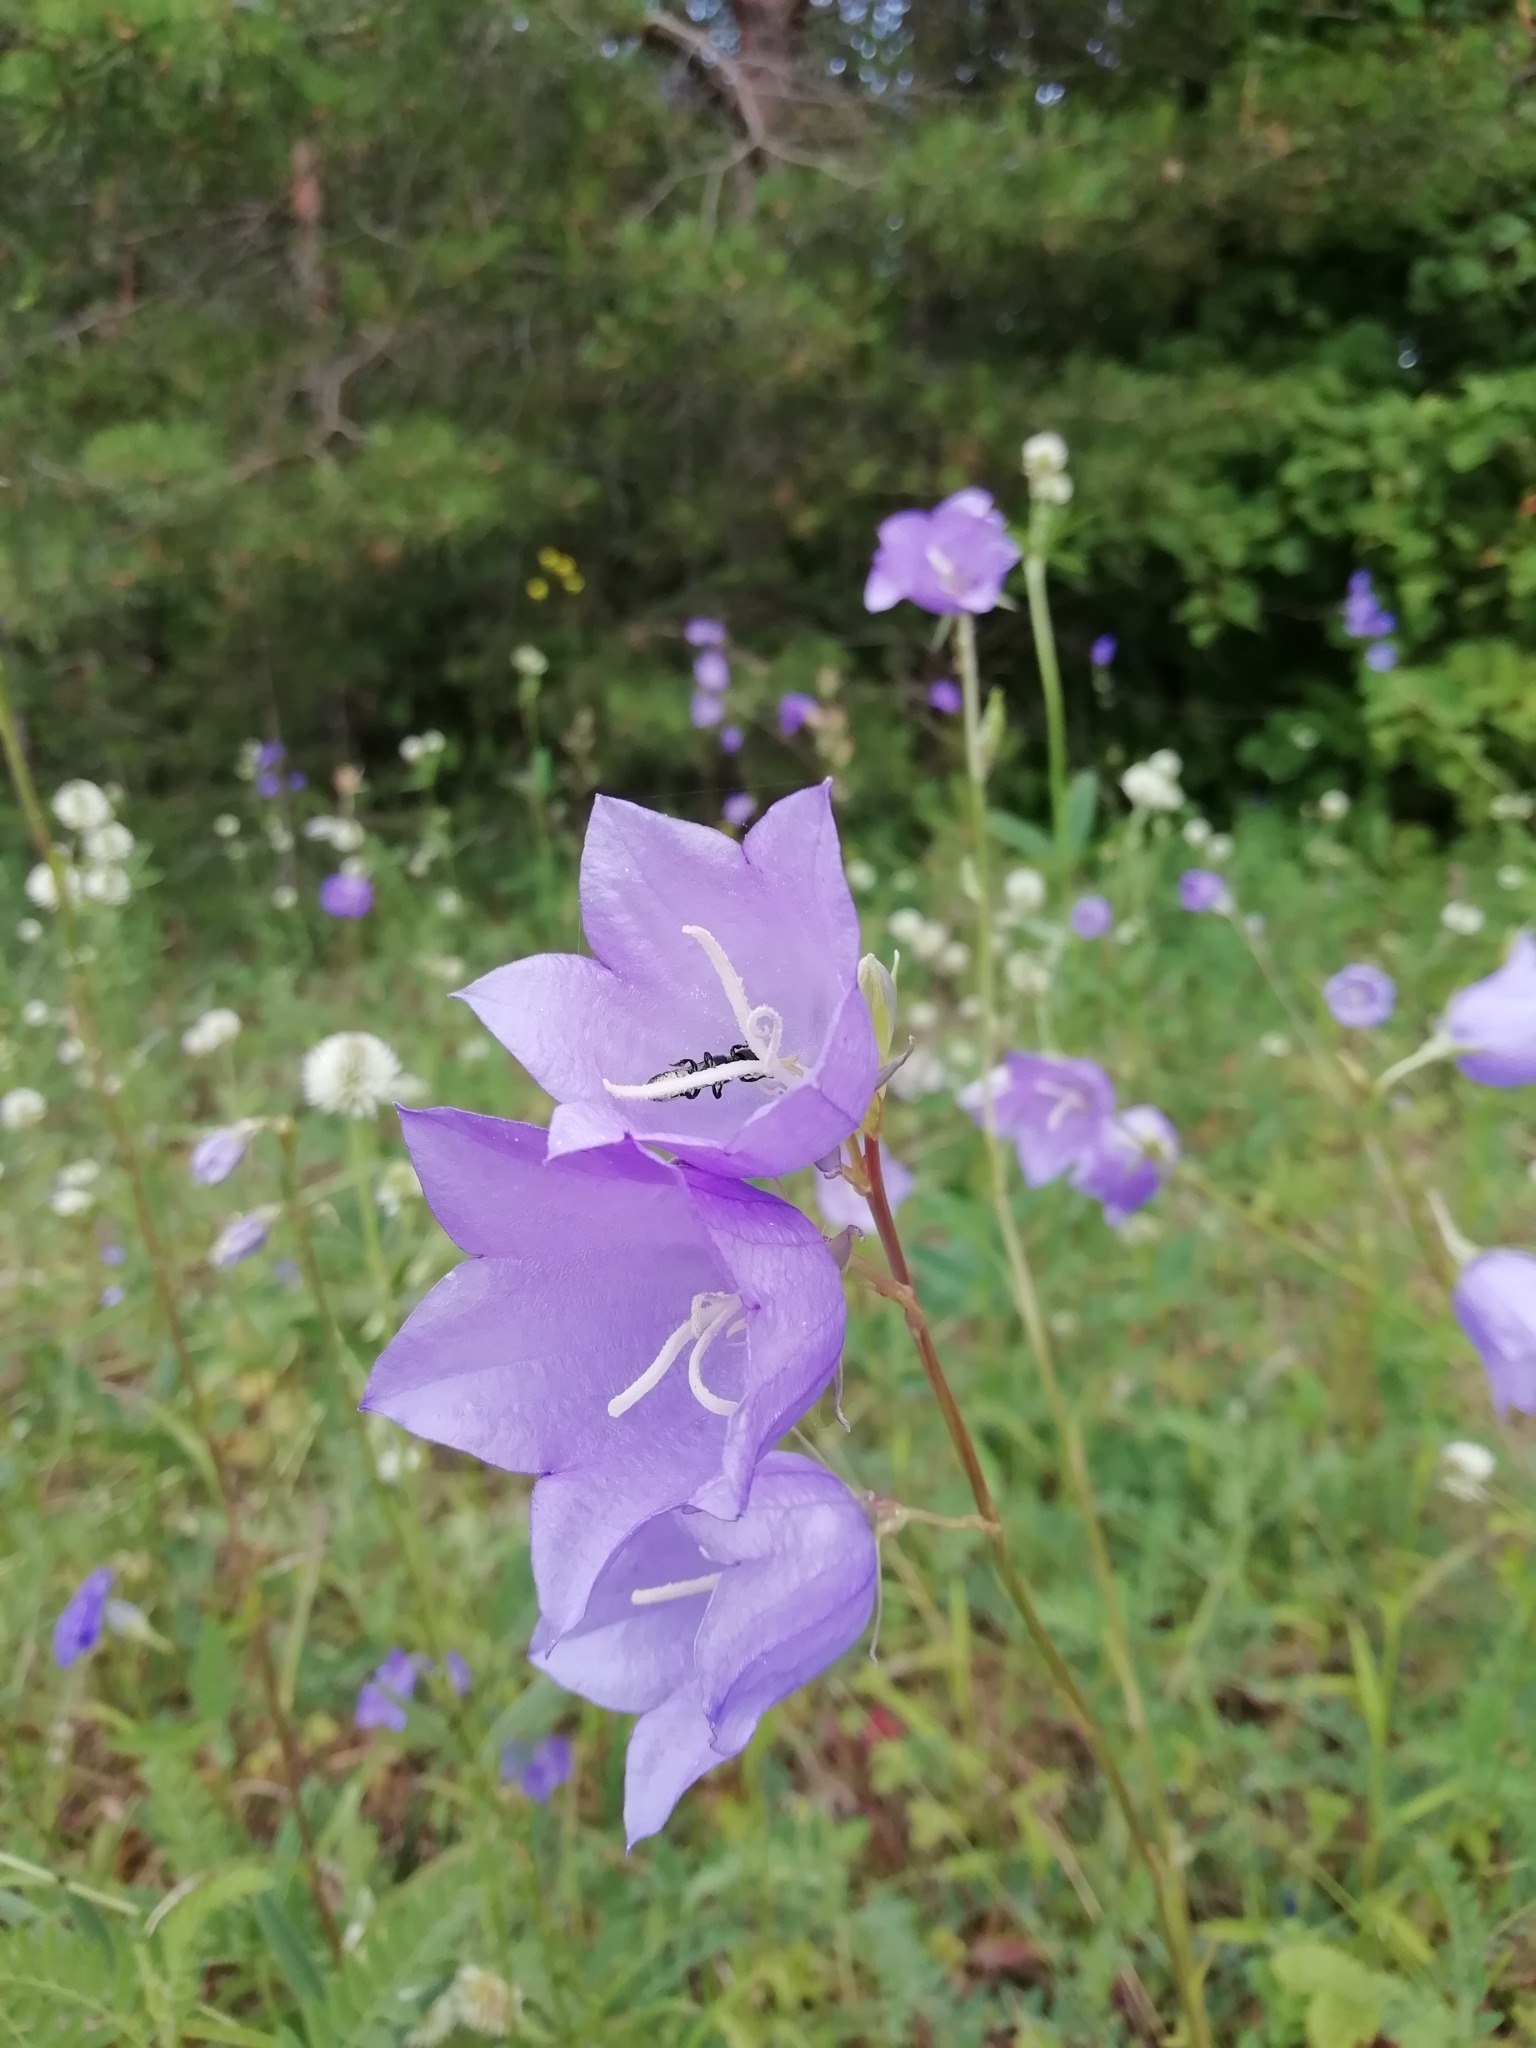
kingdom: Plantae
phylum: Tracheophyta
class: Magnoliopsida
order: Asterales
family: Campanulaceae
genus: Campanula
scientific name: Campanula persicifolia
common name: Peach-leaved bellflower
